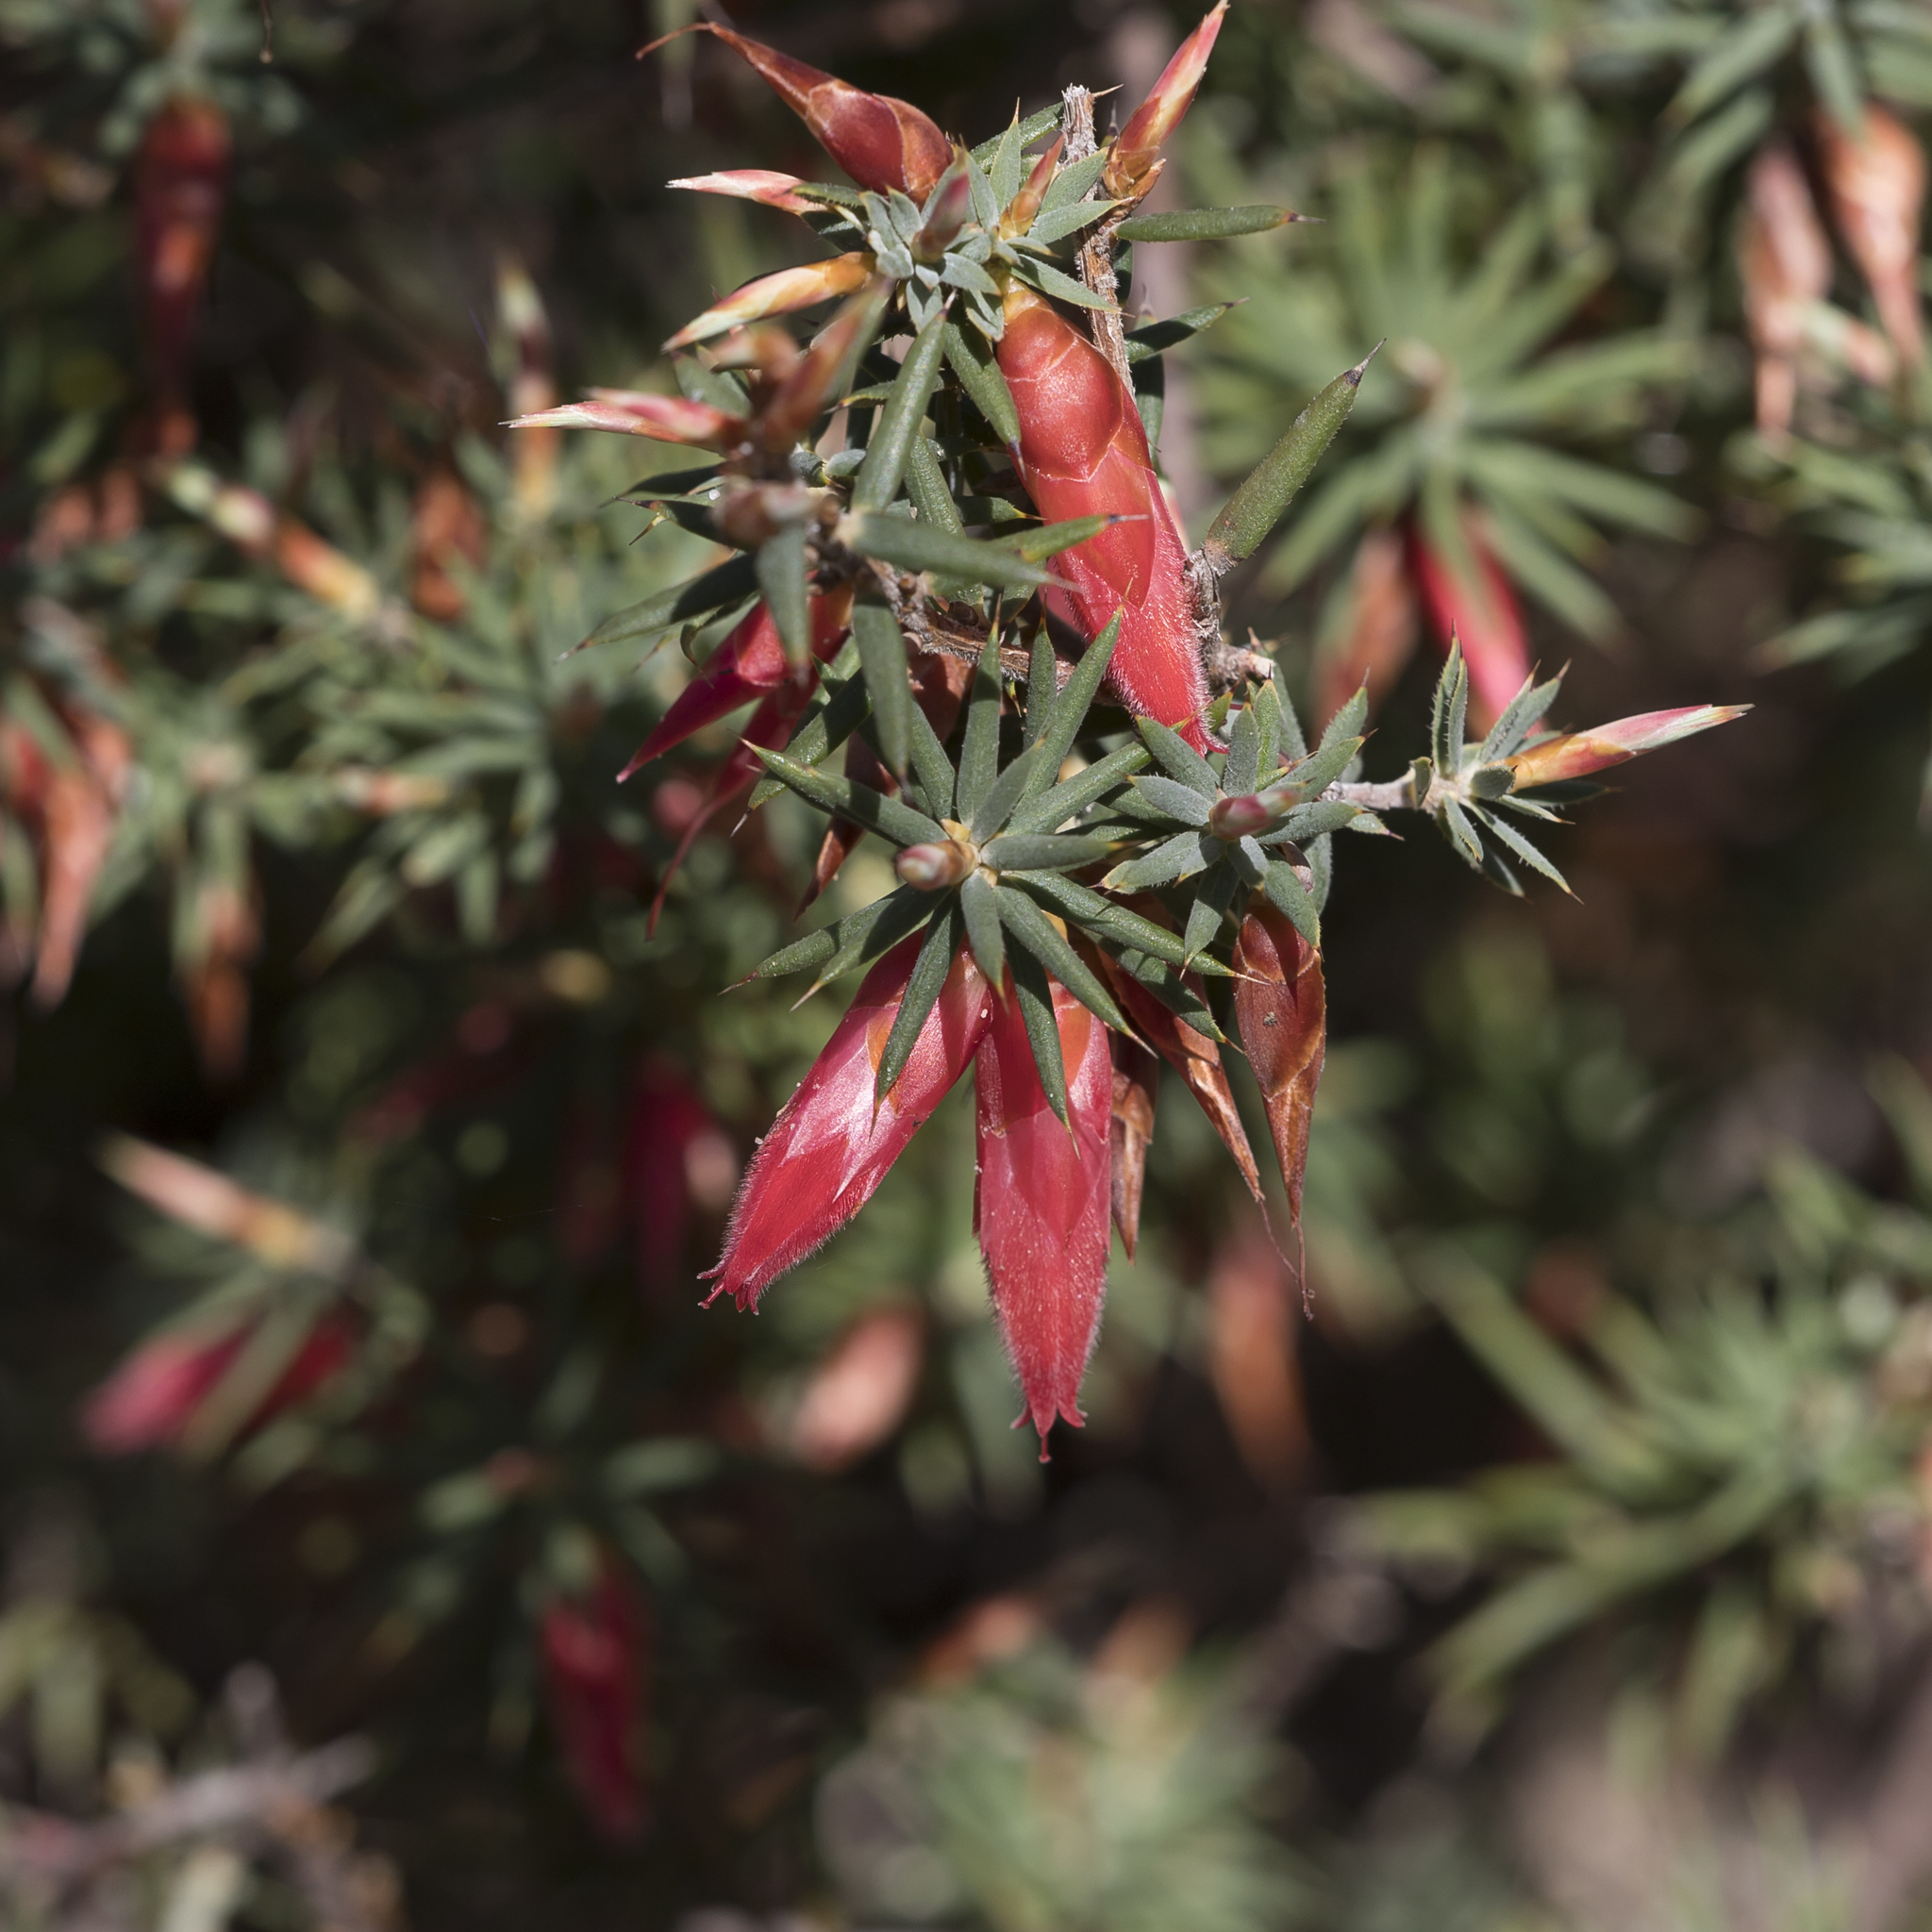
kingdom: Plantae
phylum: Tracheophyta
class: Magnoliopsida
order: Ericales
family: Ericaceae
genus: Stenanthera
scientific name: Stenanthera conostephioides
